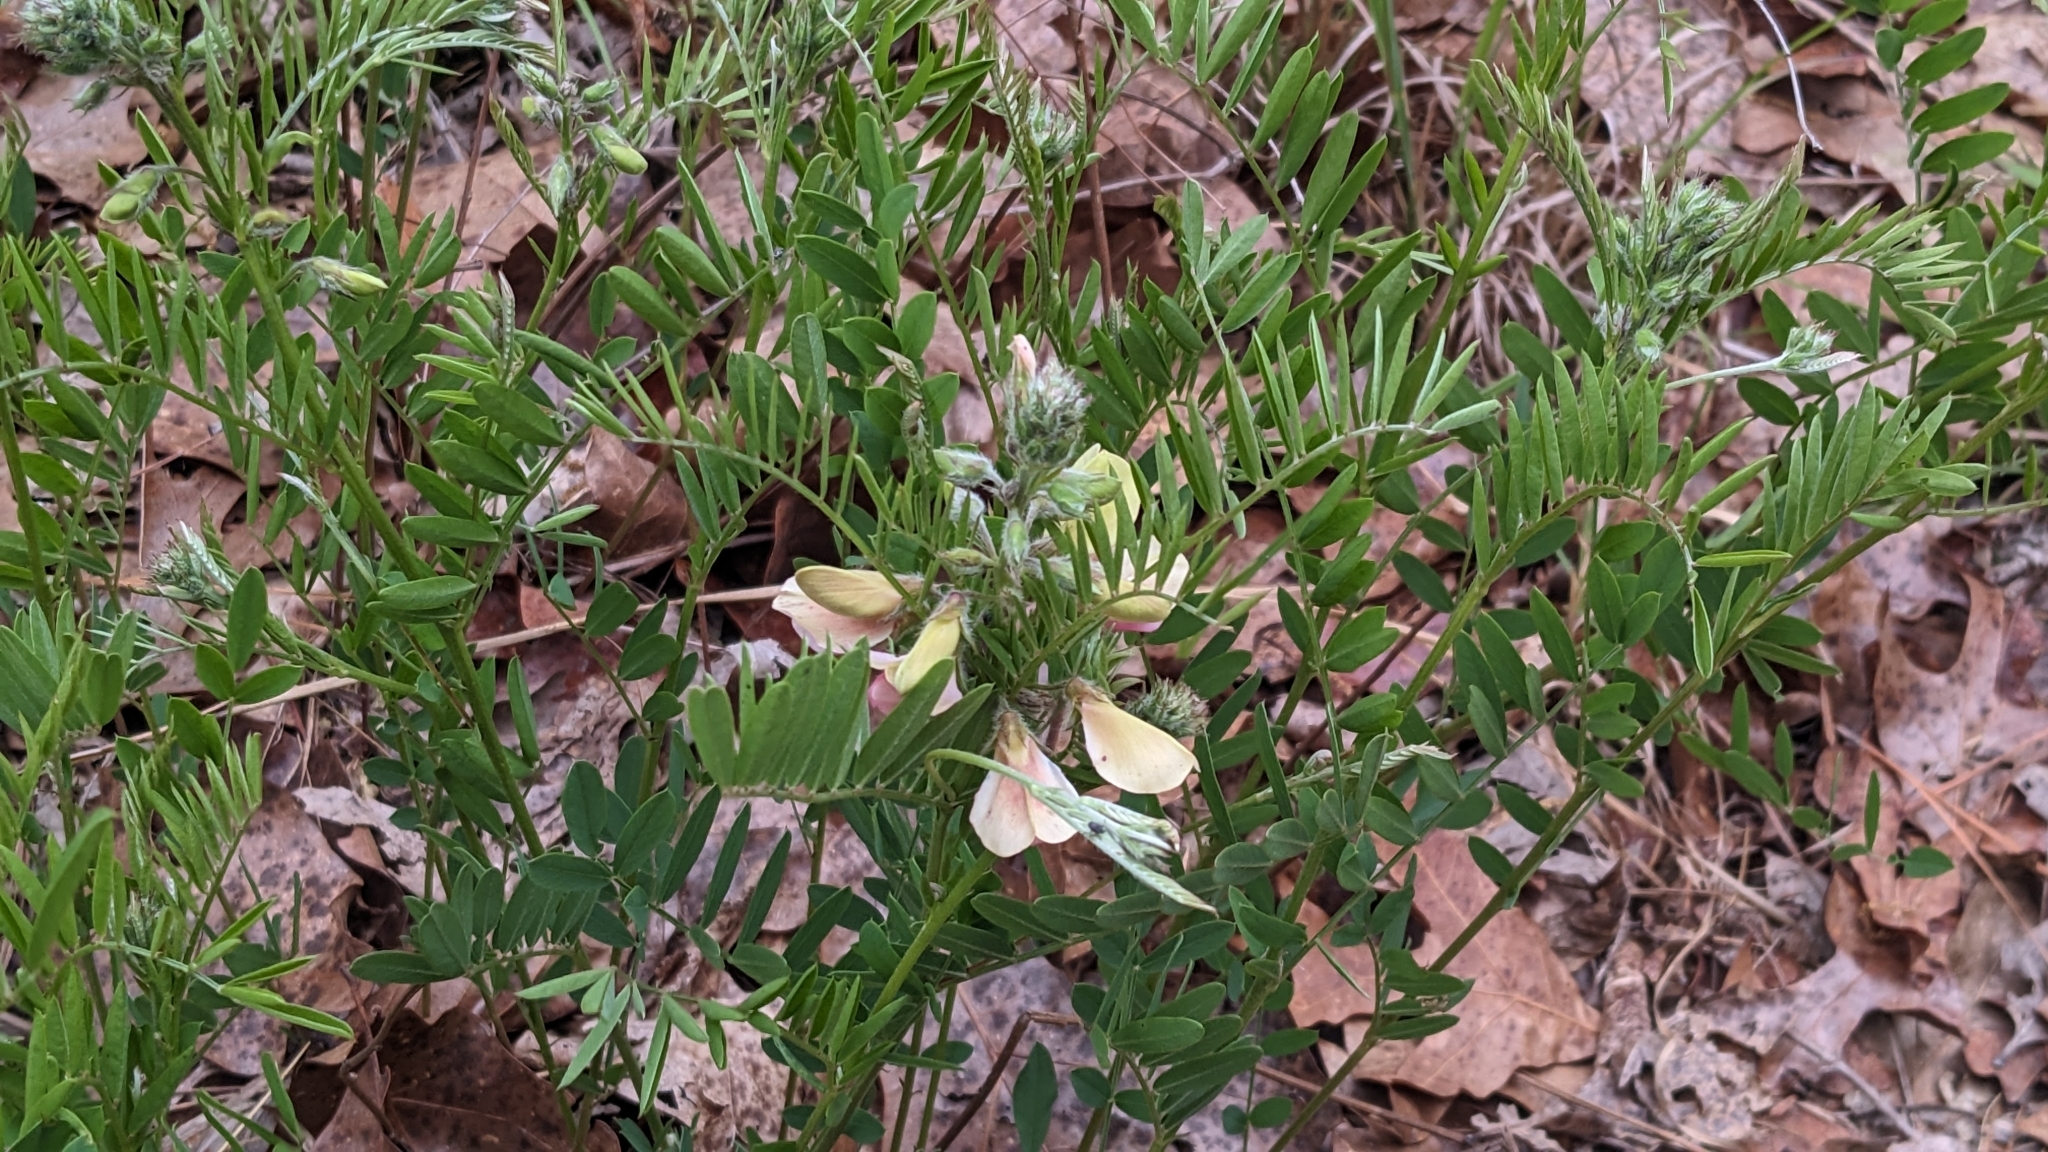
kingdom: Plantae
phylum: Tracheophyta
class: Magnoliopsida
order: Fabales
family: Fabaceae
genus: Tephrosia
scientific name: Tephrosia virginiana
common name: Rabbit-pea
